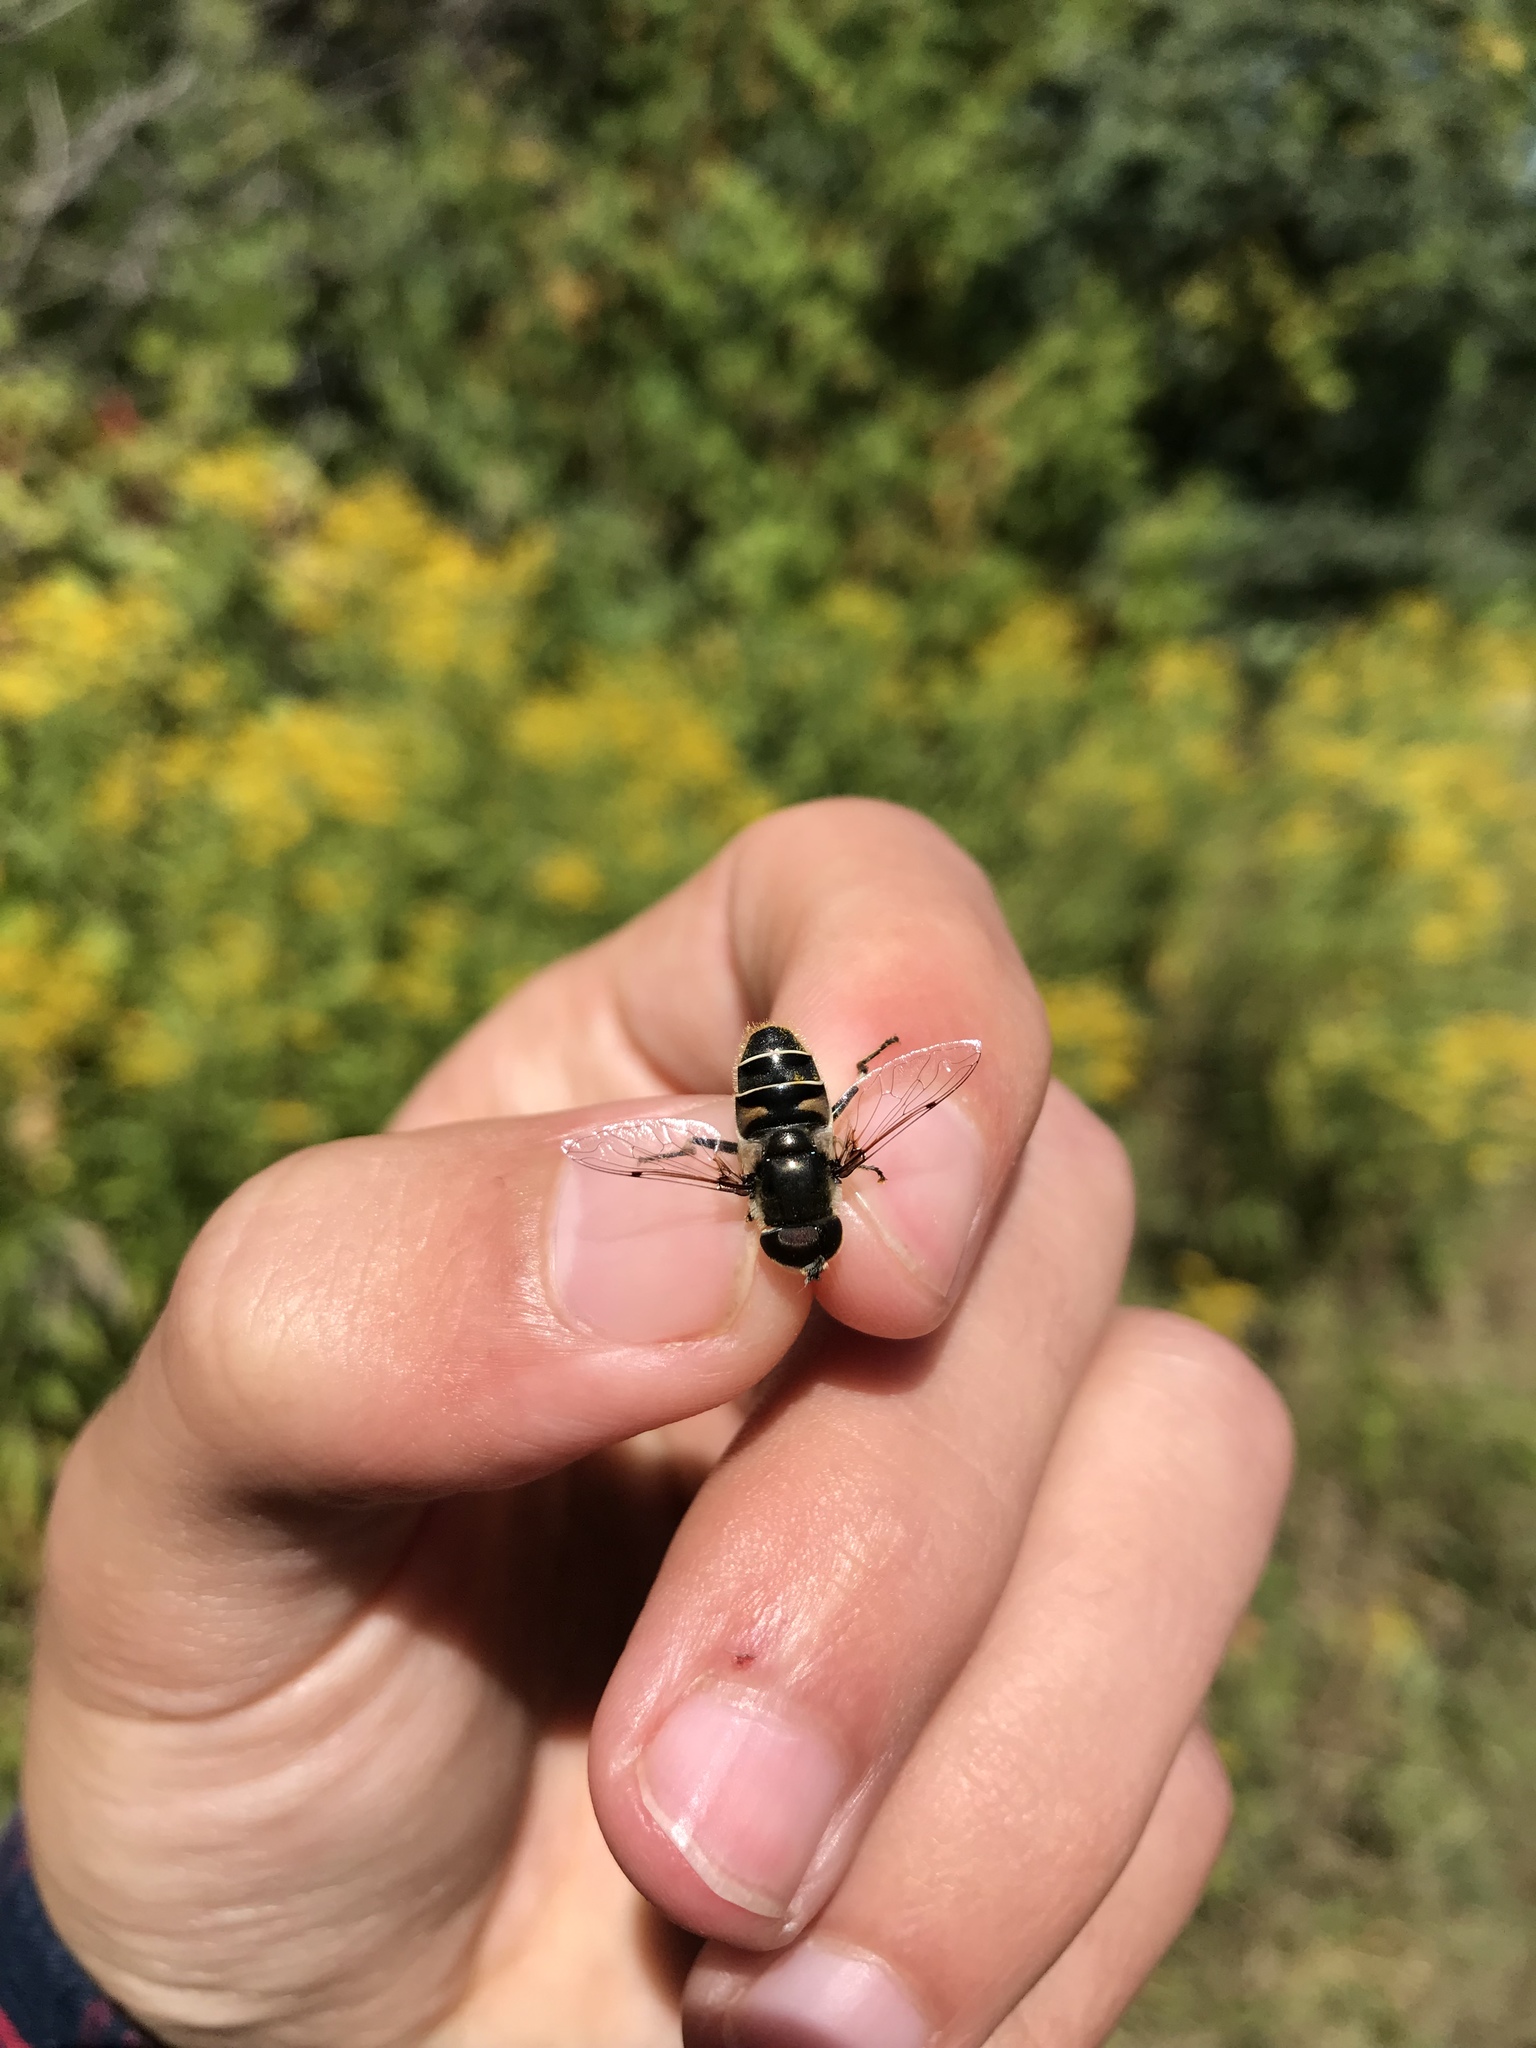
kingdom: Animalia
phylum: Arthropoda
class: Insecta
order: Diptera
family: Syrphidae
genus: Eristalis
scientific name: Eristalis dimidiata
